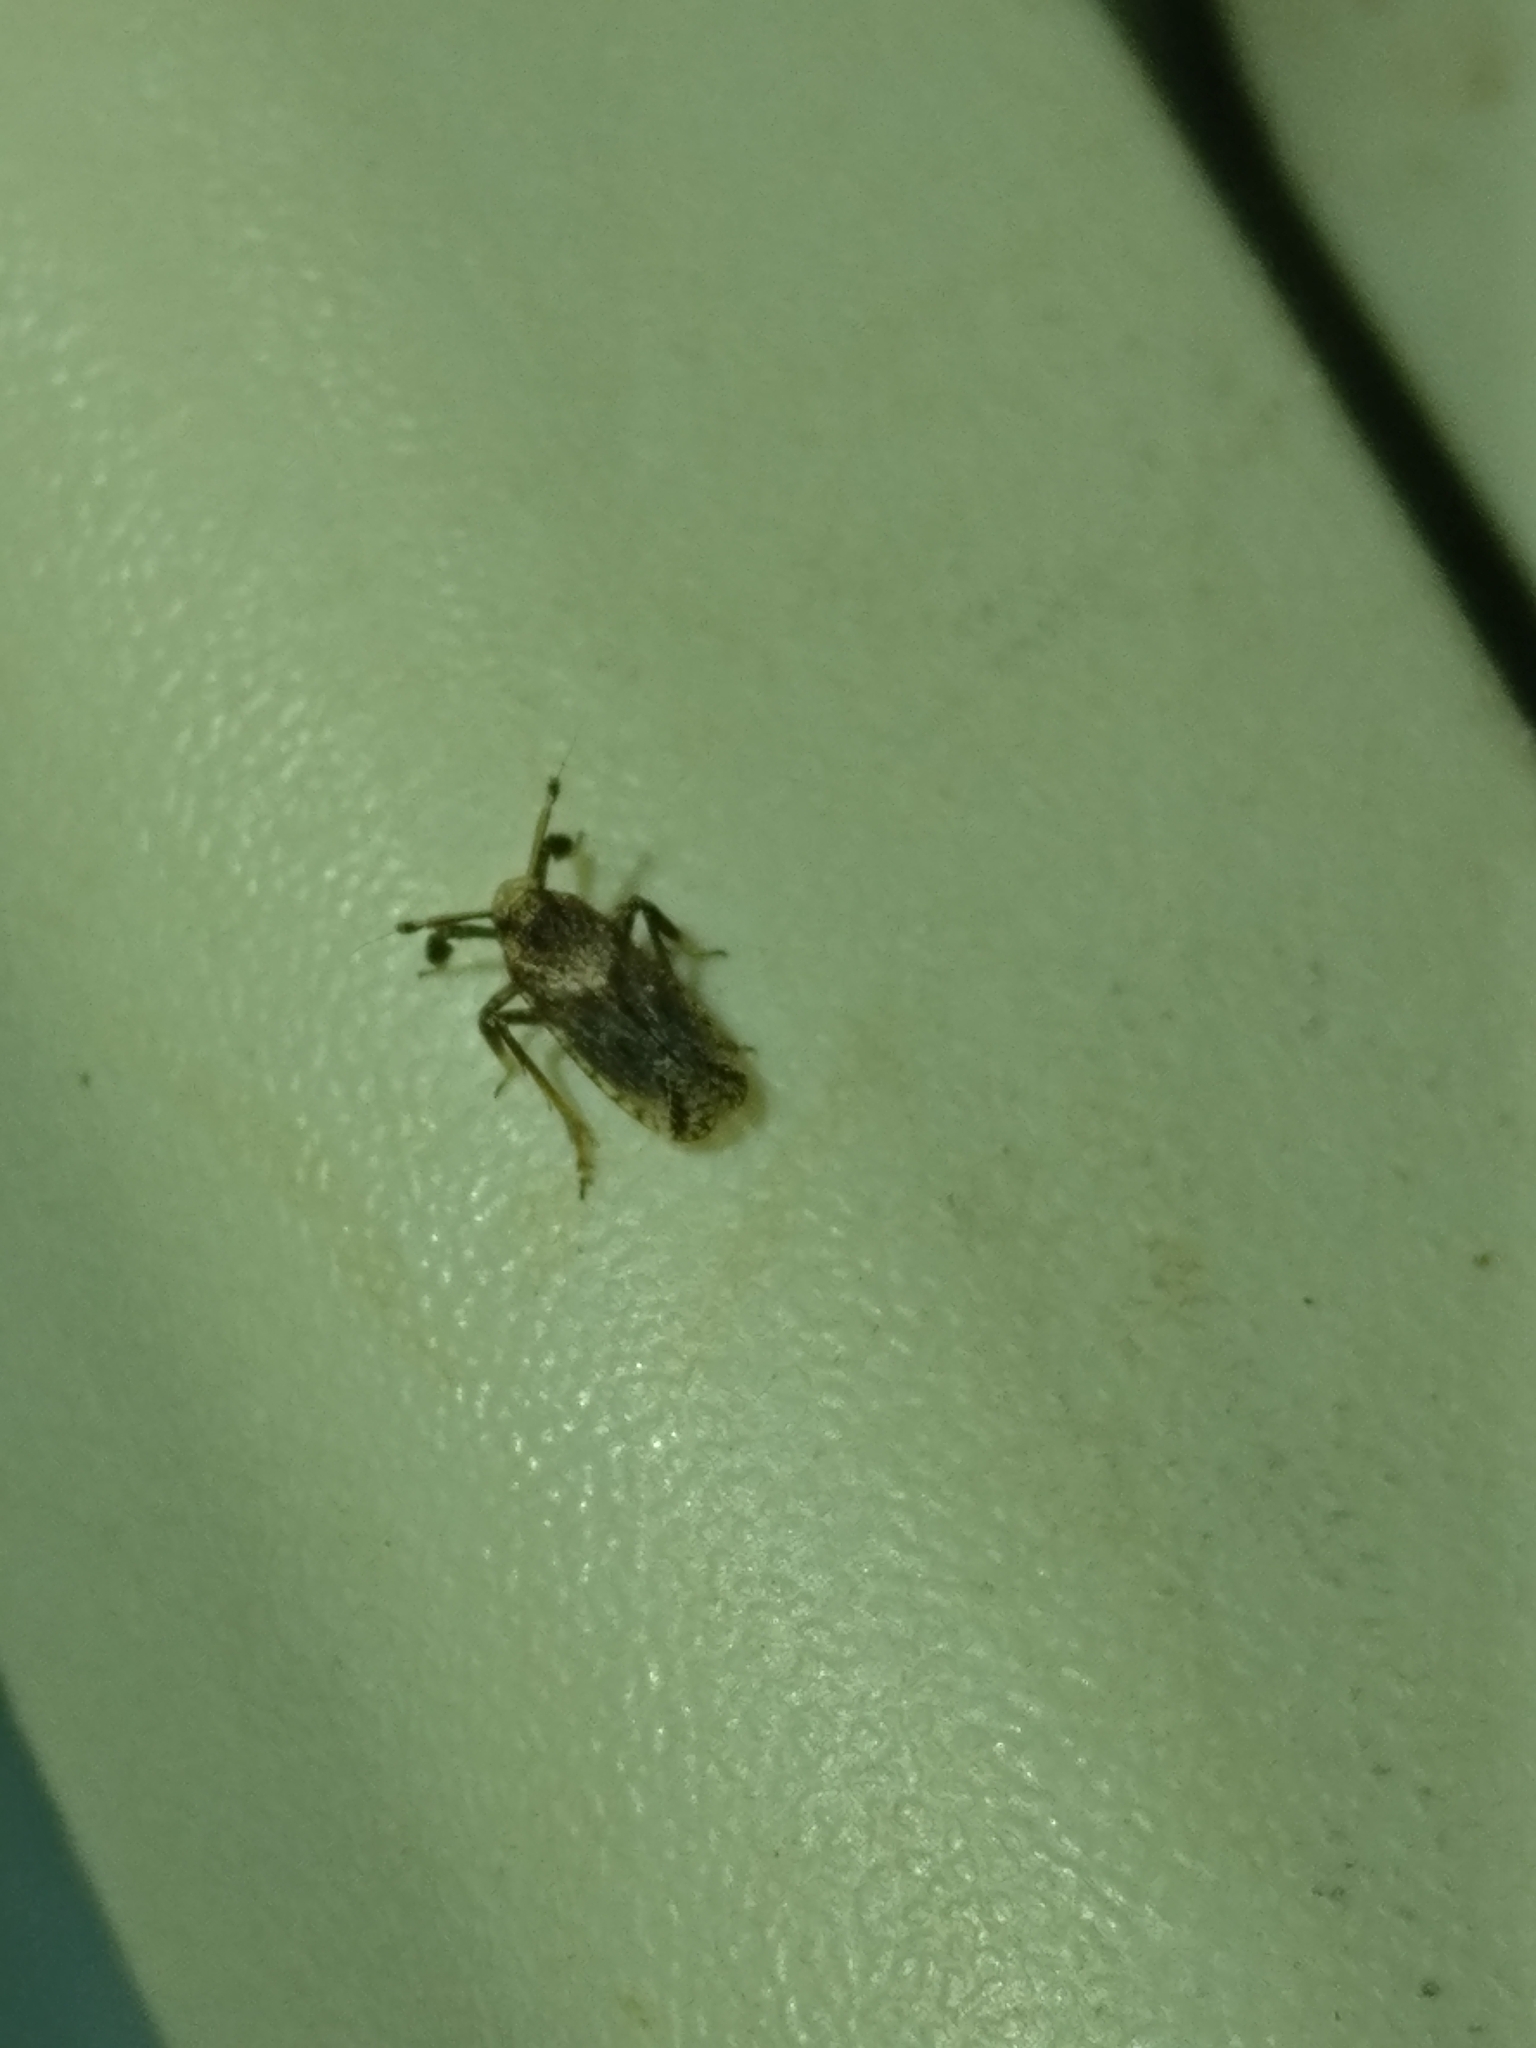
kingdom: Animalia
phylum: Arthropoda
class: Insecta
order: Hemiptera
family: Delphacidae
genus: Asiraca
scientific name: Asiraca clavicornis
